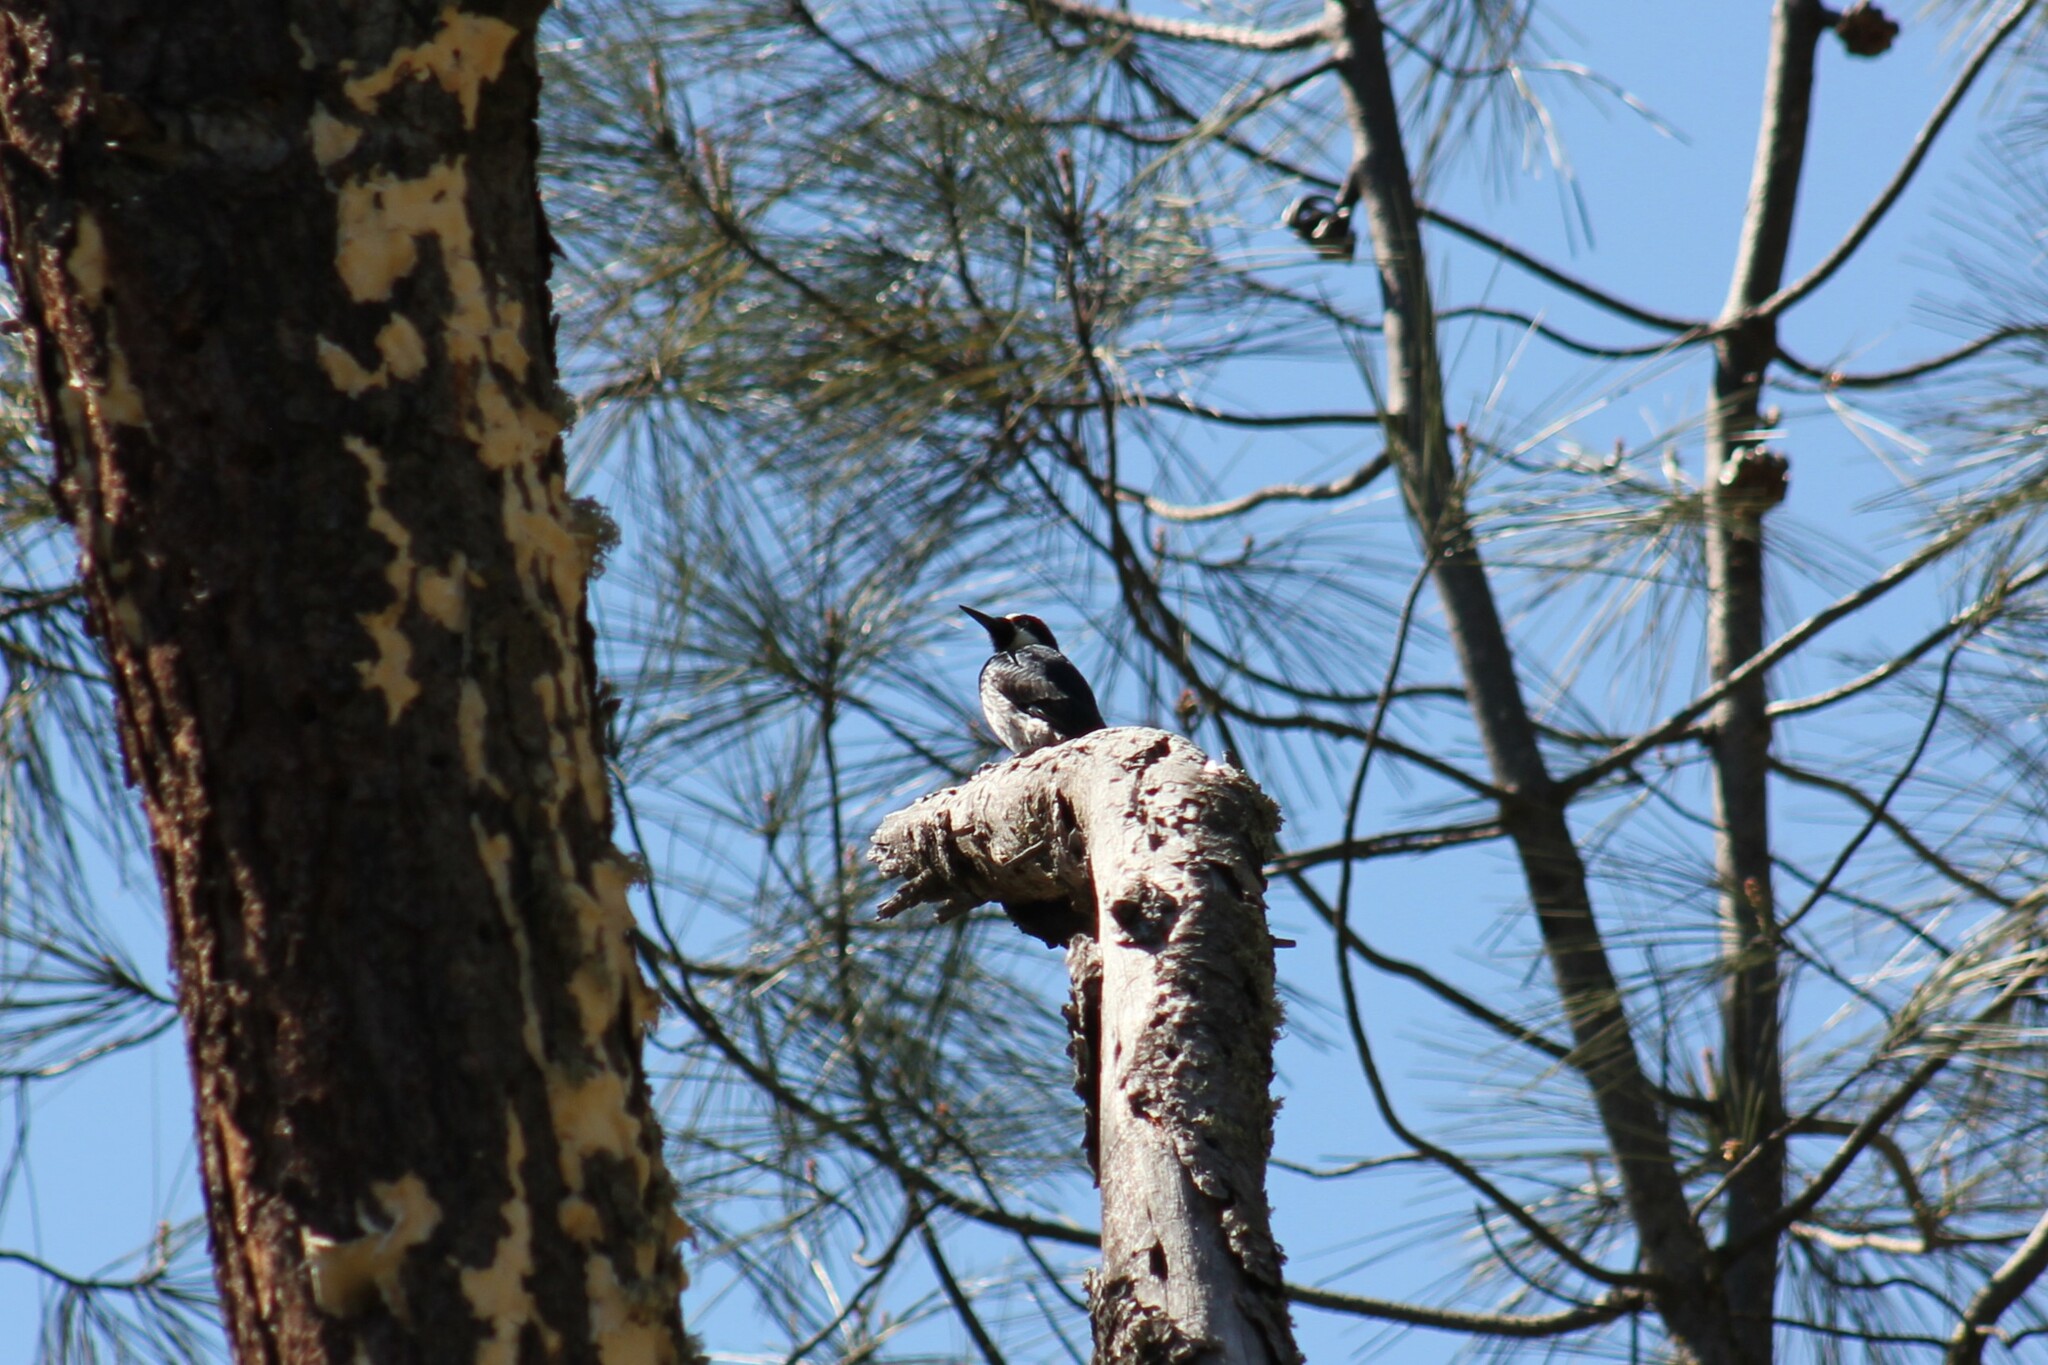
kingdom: Animalia
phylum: Chordata
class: Aves
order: Piciformes
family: Picidae
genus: Melanerpes
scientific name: Melanerpes formicivorus
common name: Acorn woodpecker
